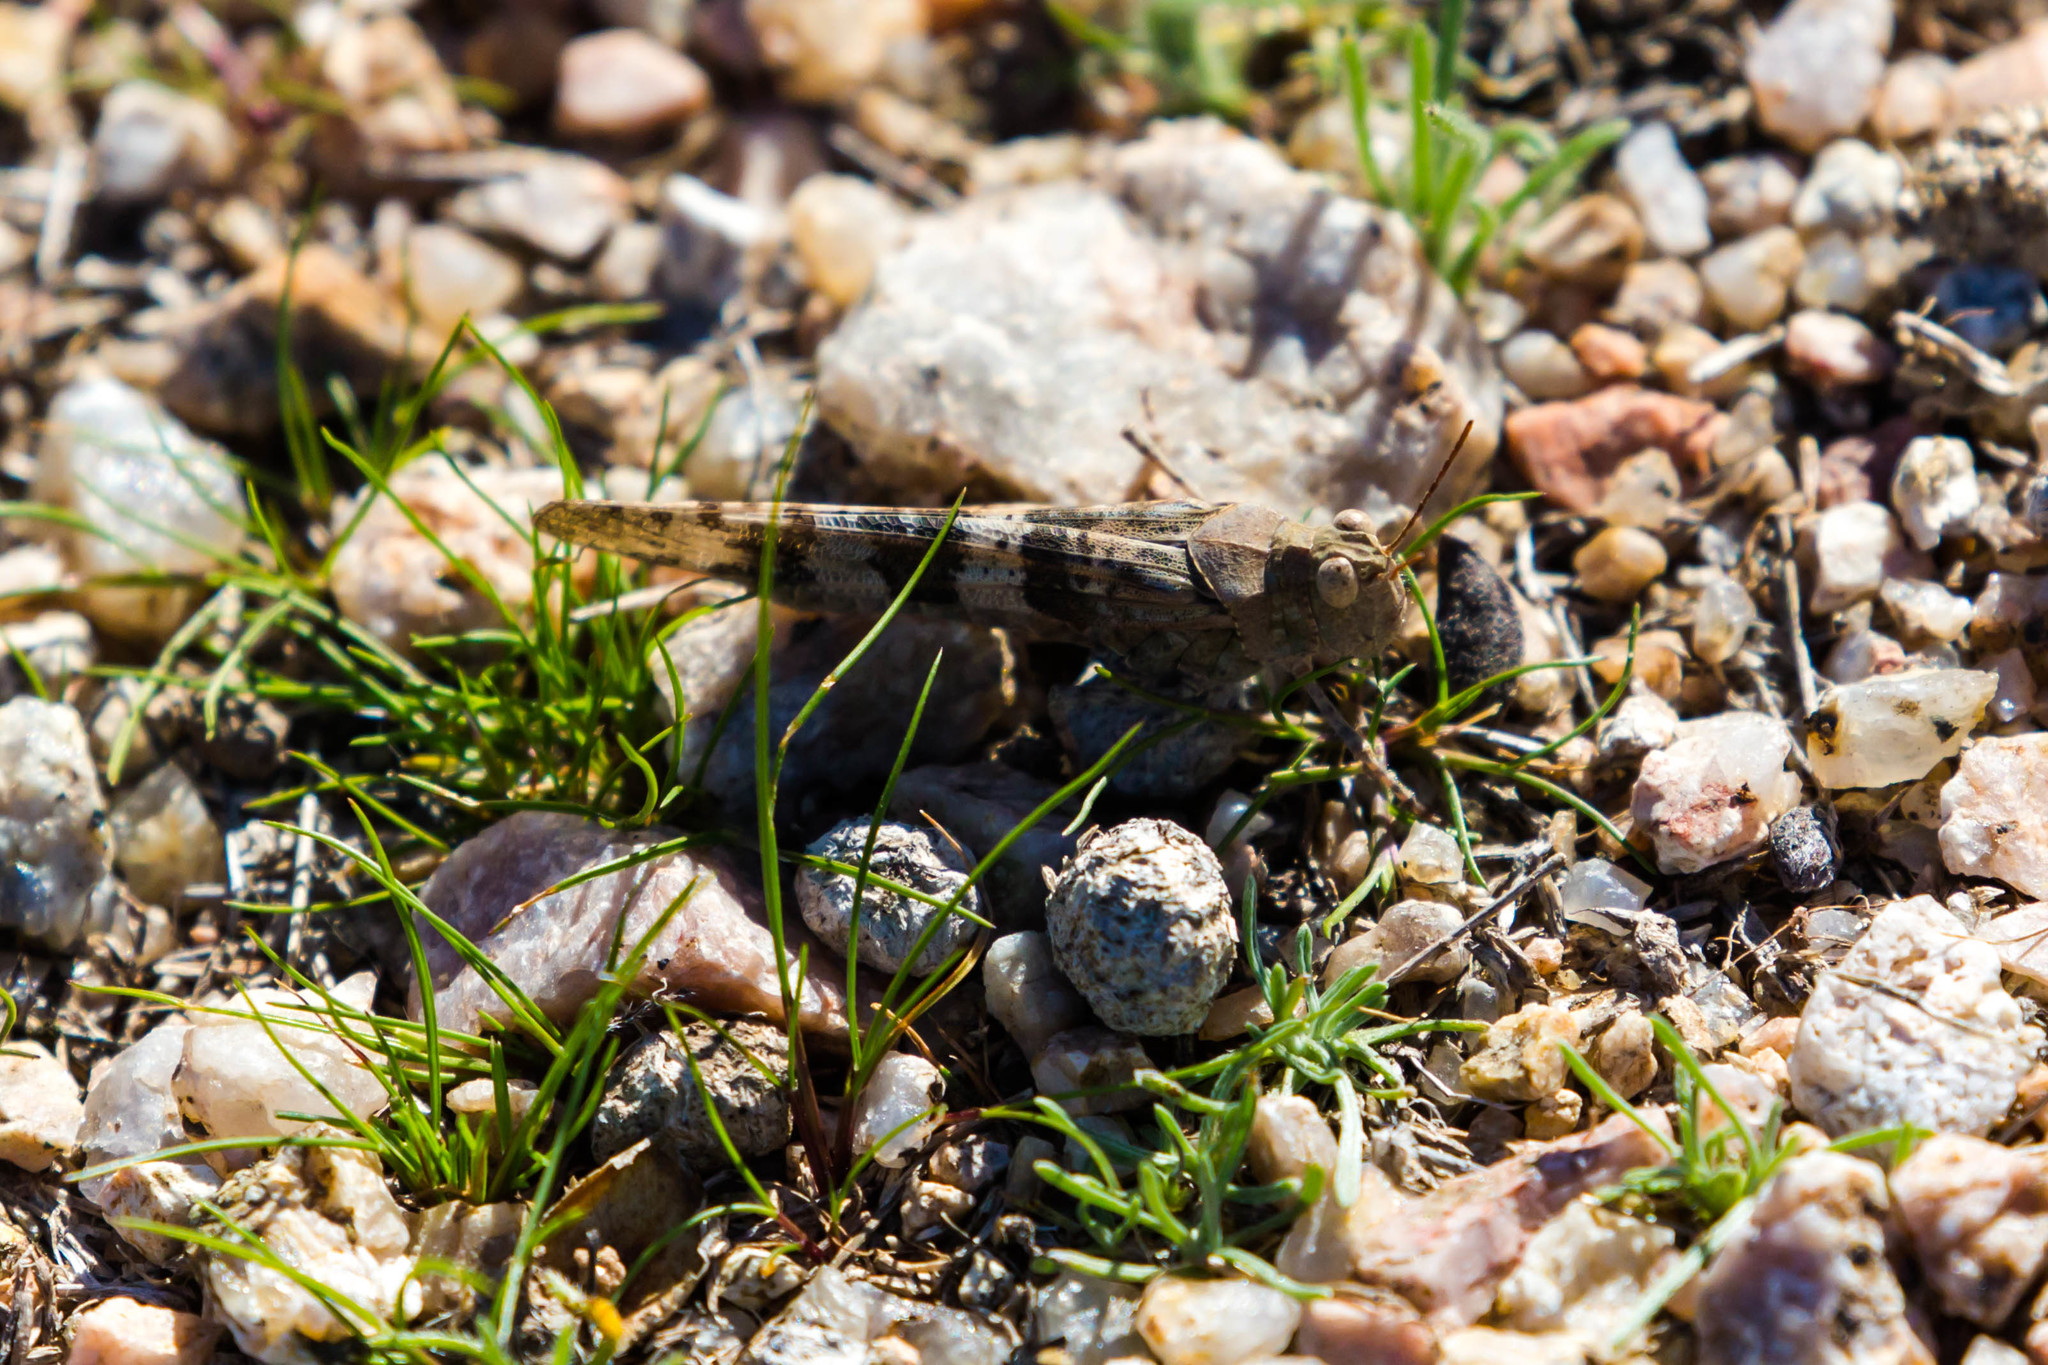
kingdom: Animalia
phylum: Arthropoda
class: Insecta
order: Orthoptera
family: Acrididae
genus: Trimerotropis
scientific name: Trimerotropis pallidipennis
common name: Pallid-winged grasshopper
